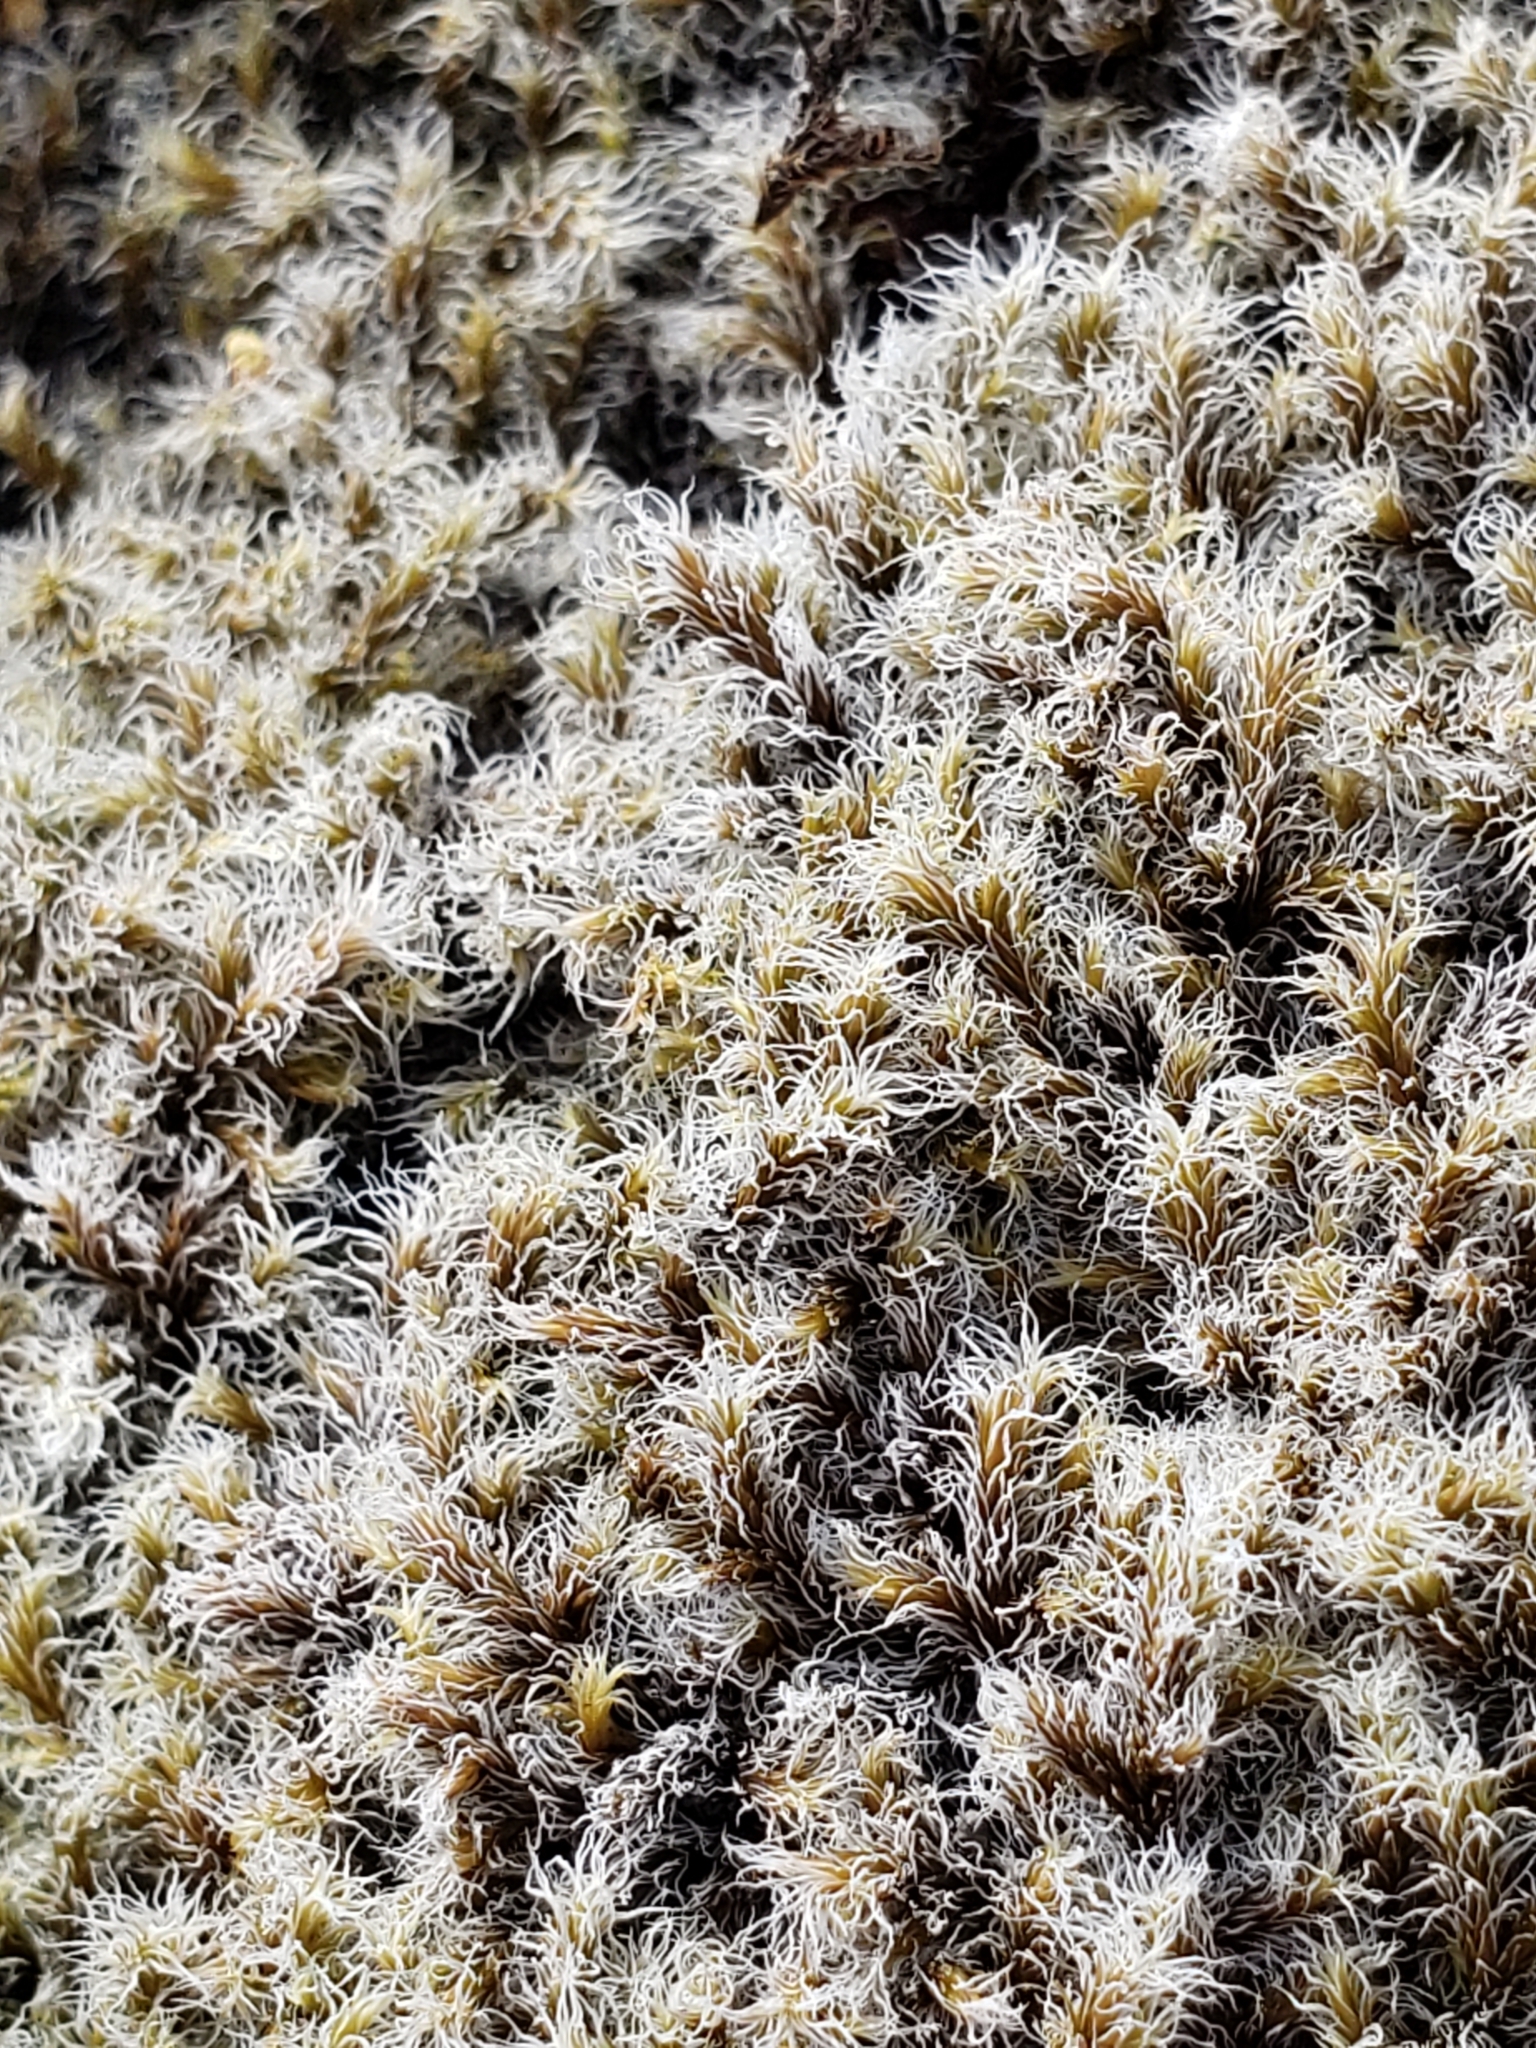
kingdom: Plantae
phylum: Bryophyta
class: Bryopsida
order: Grimmiales
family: Grimmiaceae
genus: Racomitrium
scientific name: Racomitrium lanuginosum
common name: Hoary rock moss
